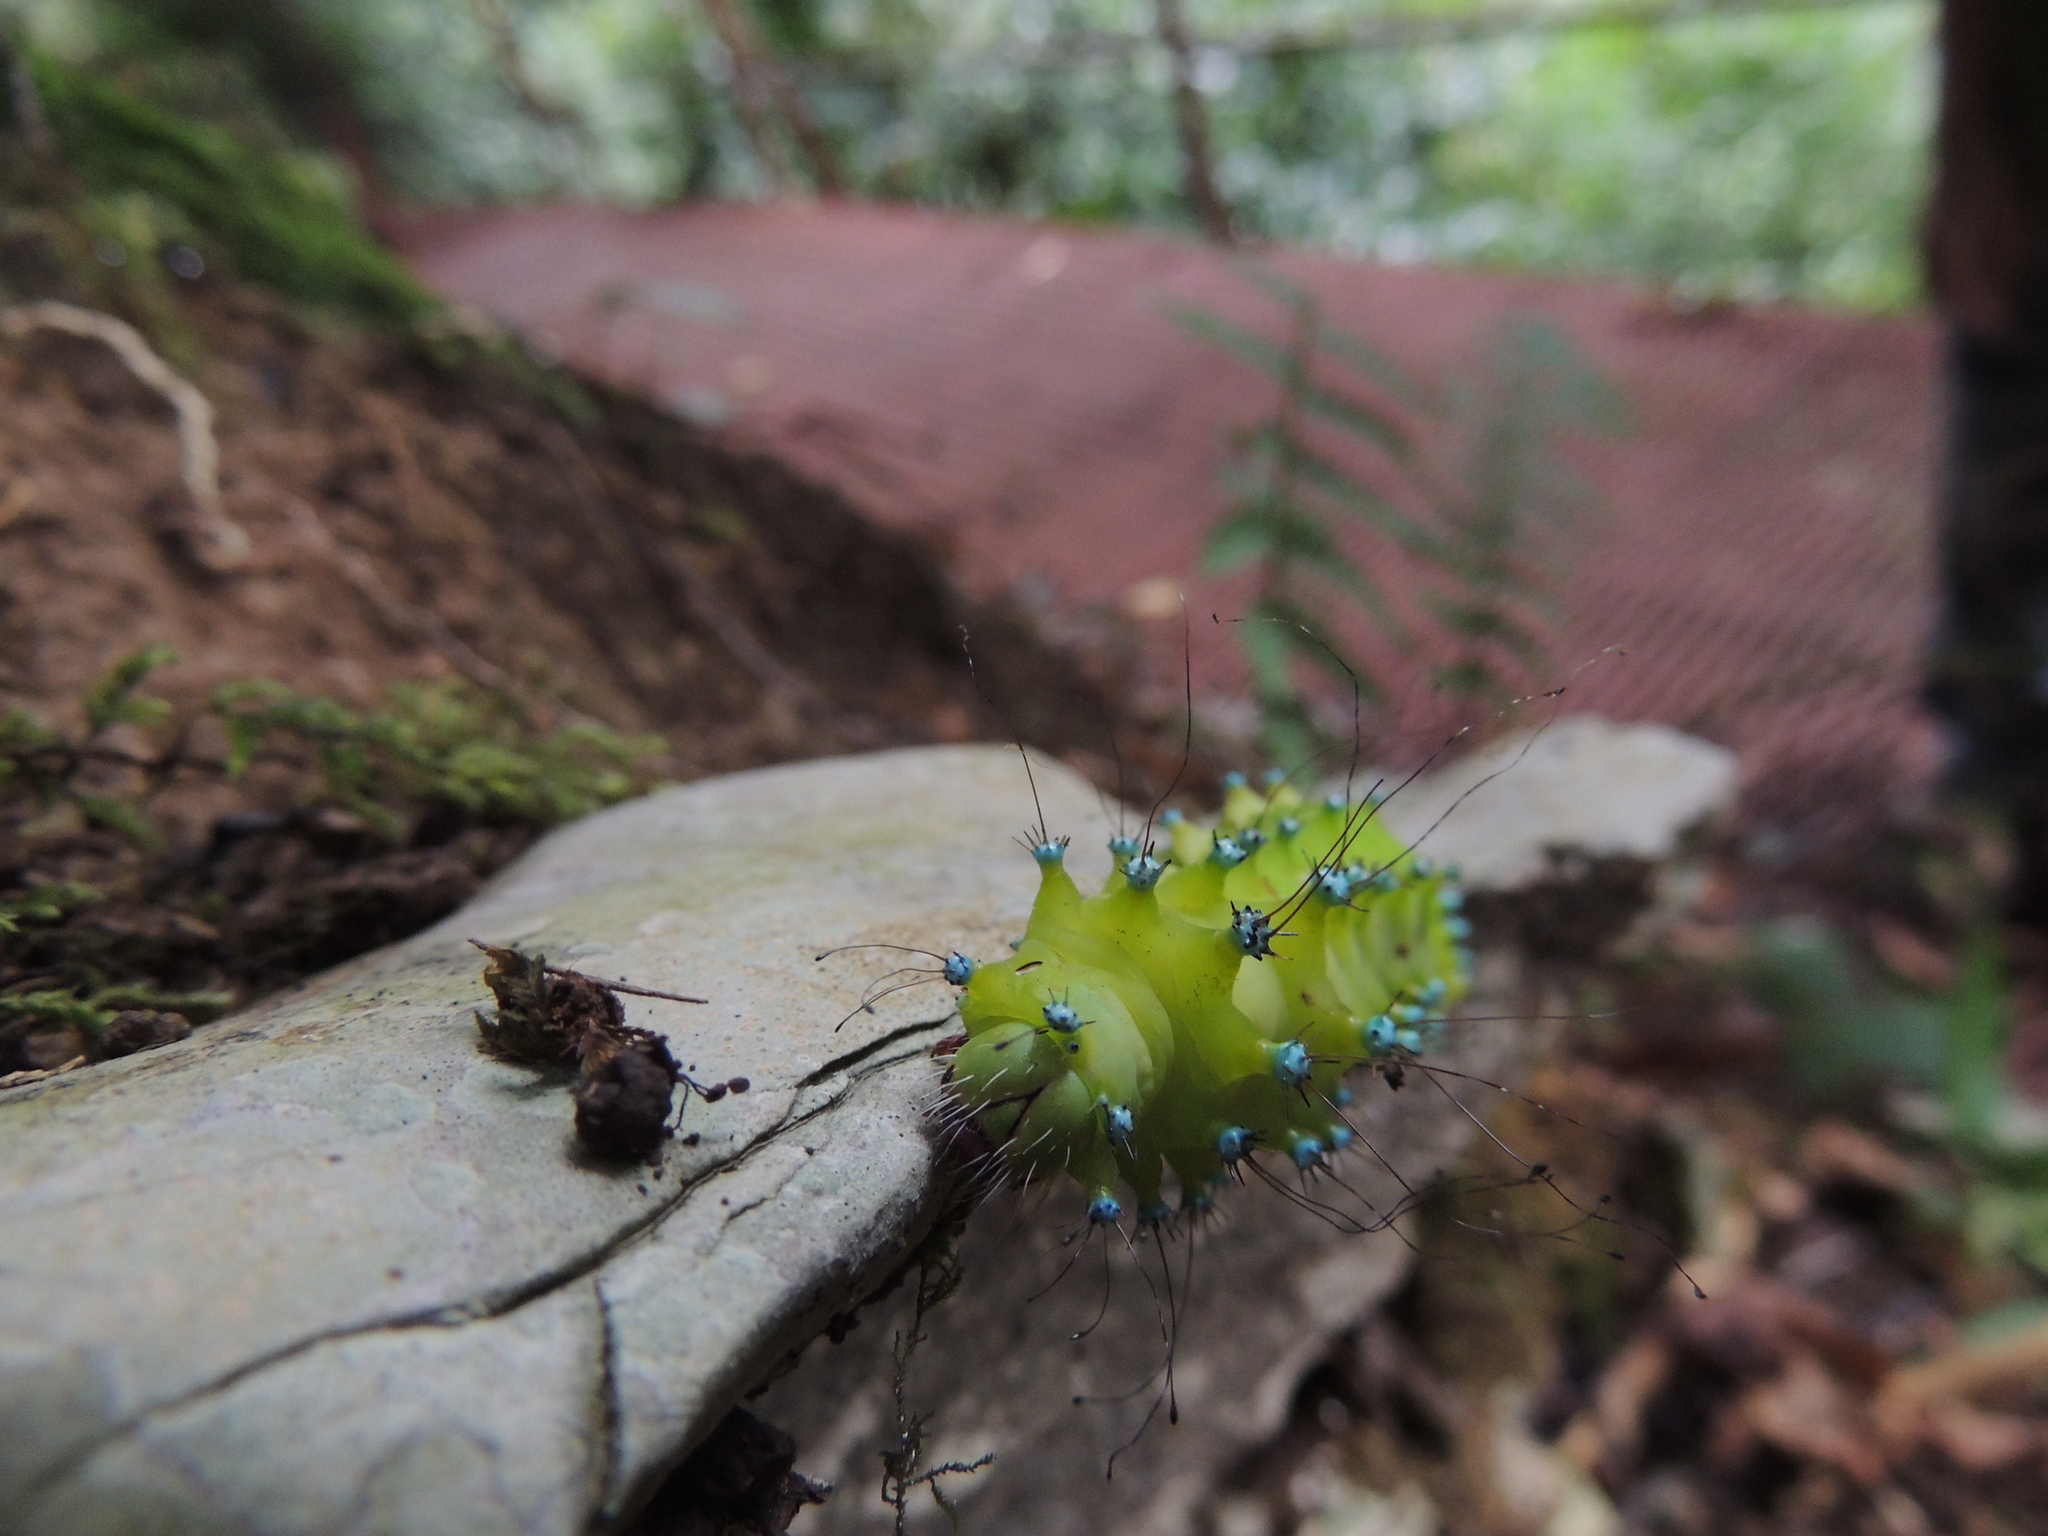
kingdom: Animalia
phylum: Arthropoda
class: Insecta
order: Lepidoptera
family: Saturniidae
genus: Saturnia
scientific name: Saturnia pyri
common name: Great peacock moth
